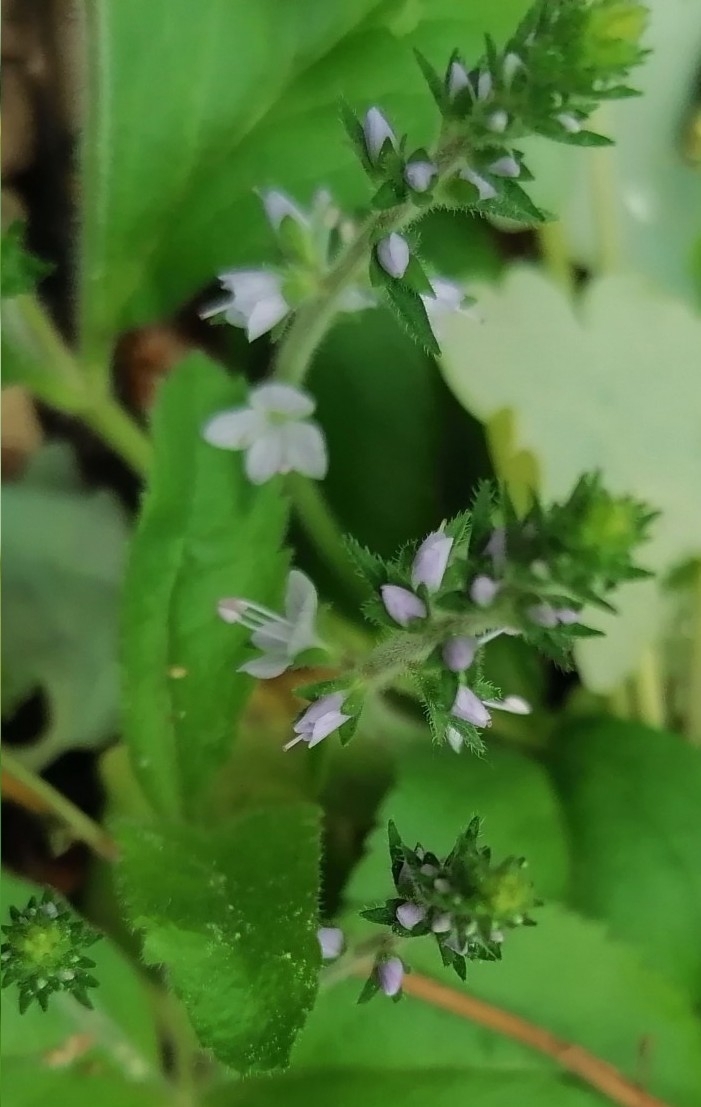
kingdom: Plantae
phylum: Tracheophyta
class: Magnoliopsida
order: Lamiales
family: Plantaginaceae
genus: Veronica
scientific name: Veronica officinalis
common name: Common speedwell
